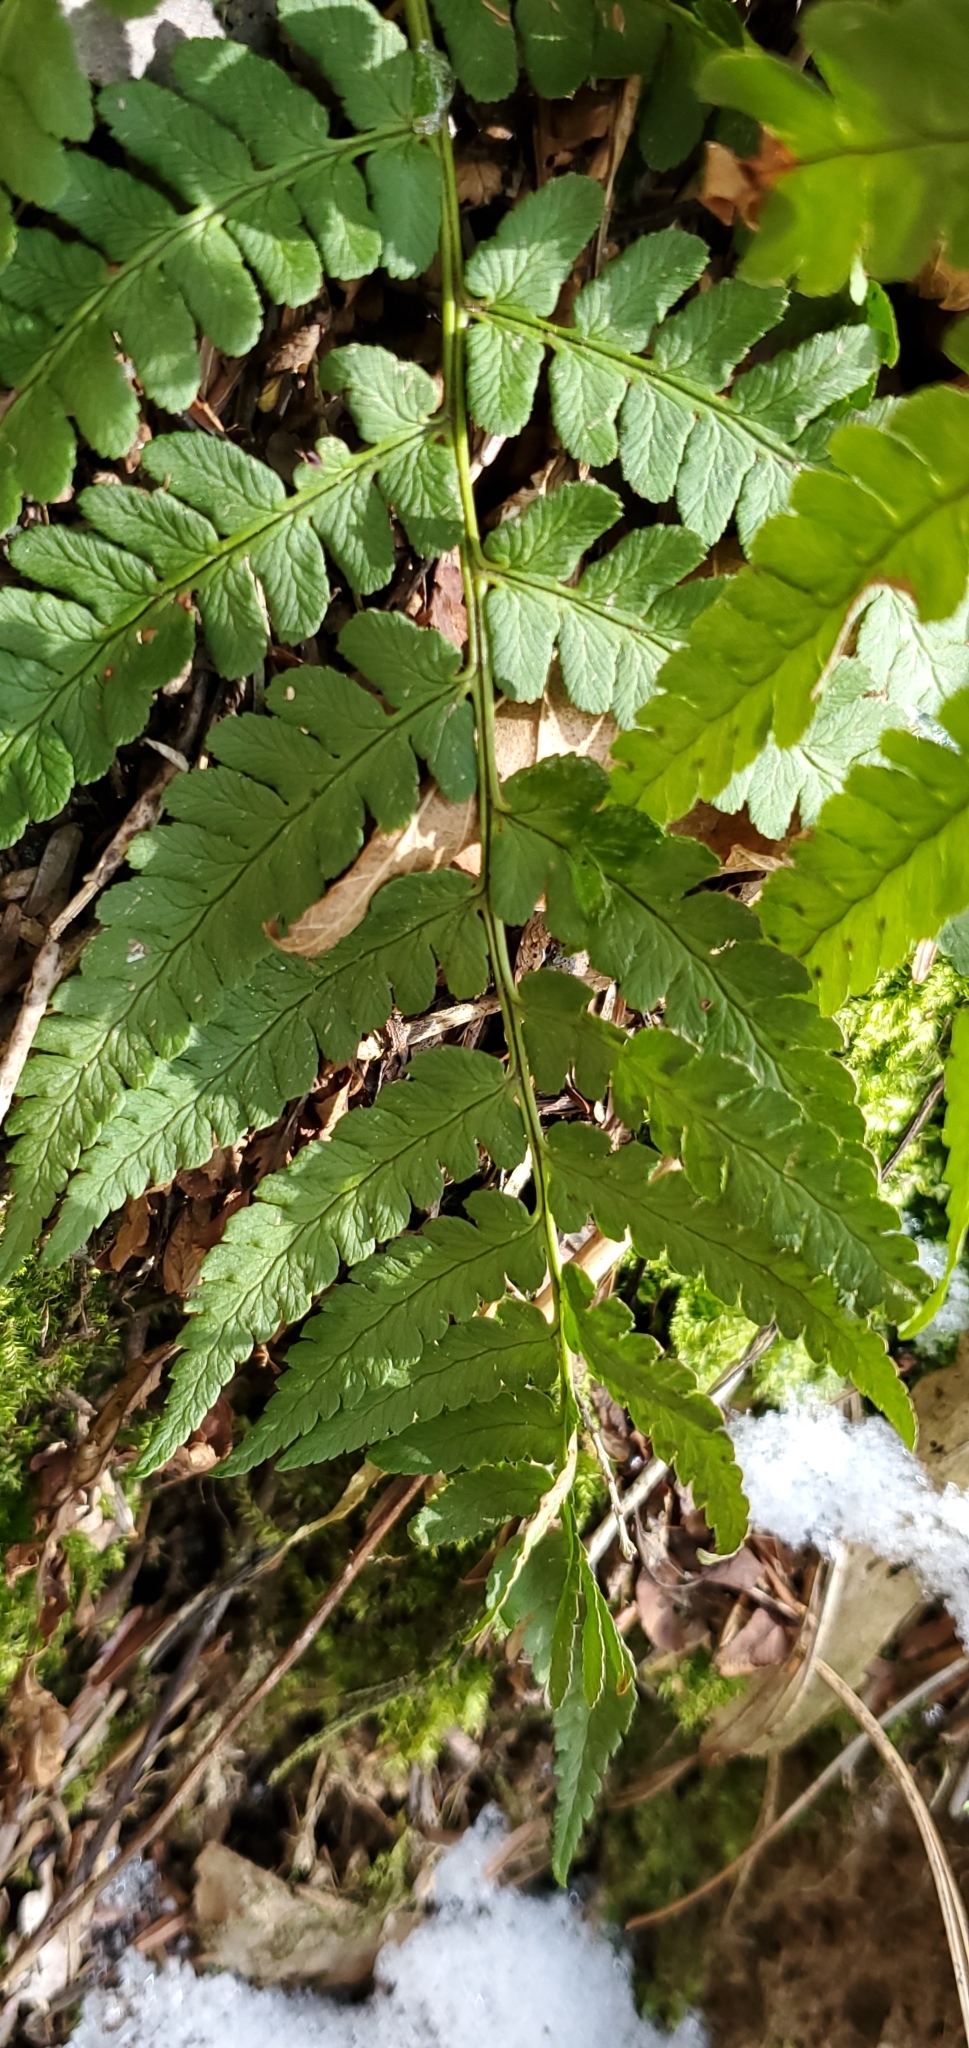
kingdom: Plantae
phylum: Tracheophyta
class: Polypodiopsida
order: Polypodiales
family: Dryopteridaceae
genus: Dryopteris
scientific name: Dryopteris marginalis
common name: Marginal wood fern
